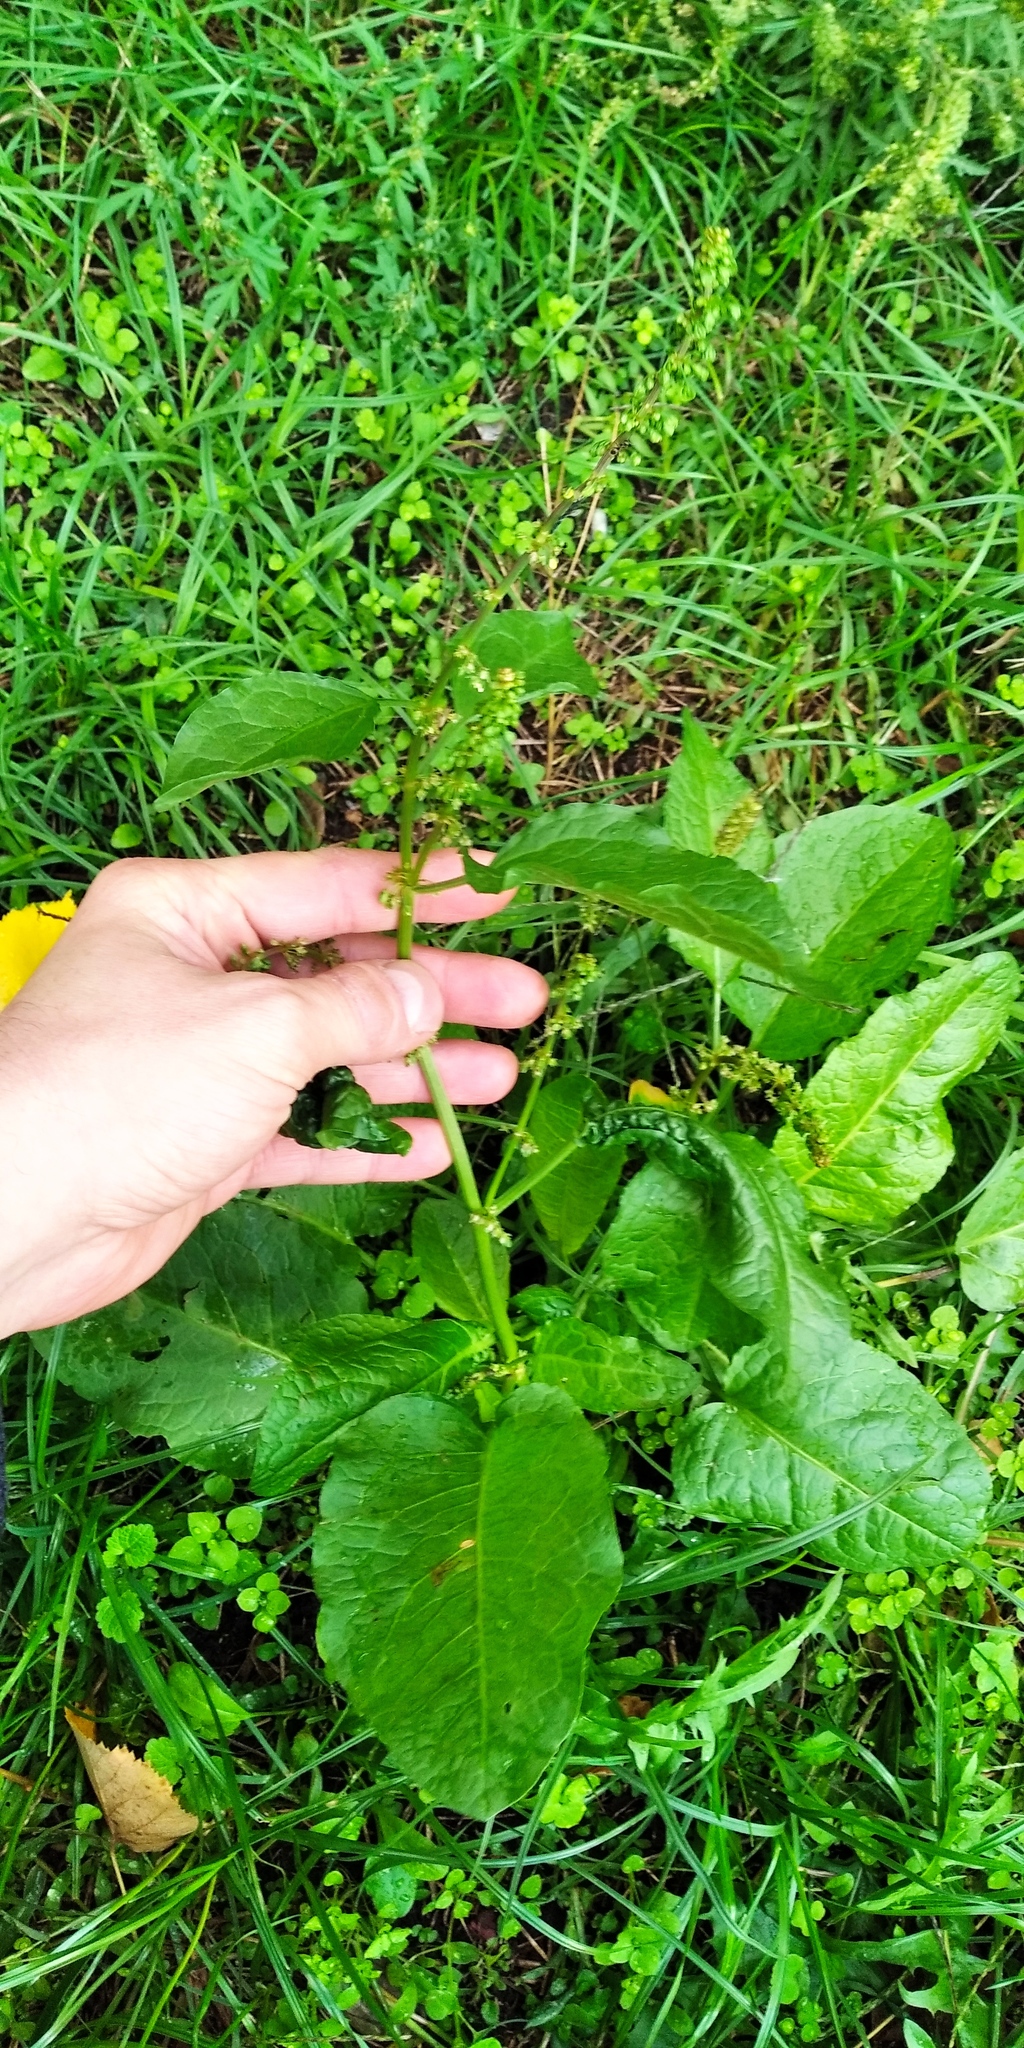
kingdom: Plantae
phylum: Tracheophyta
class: Magnoliopsida
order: Caryophyllales
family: Polygonaceae
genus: Rumex
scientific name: Rumex obtusifolius
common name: Bitter dock
